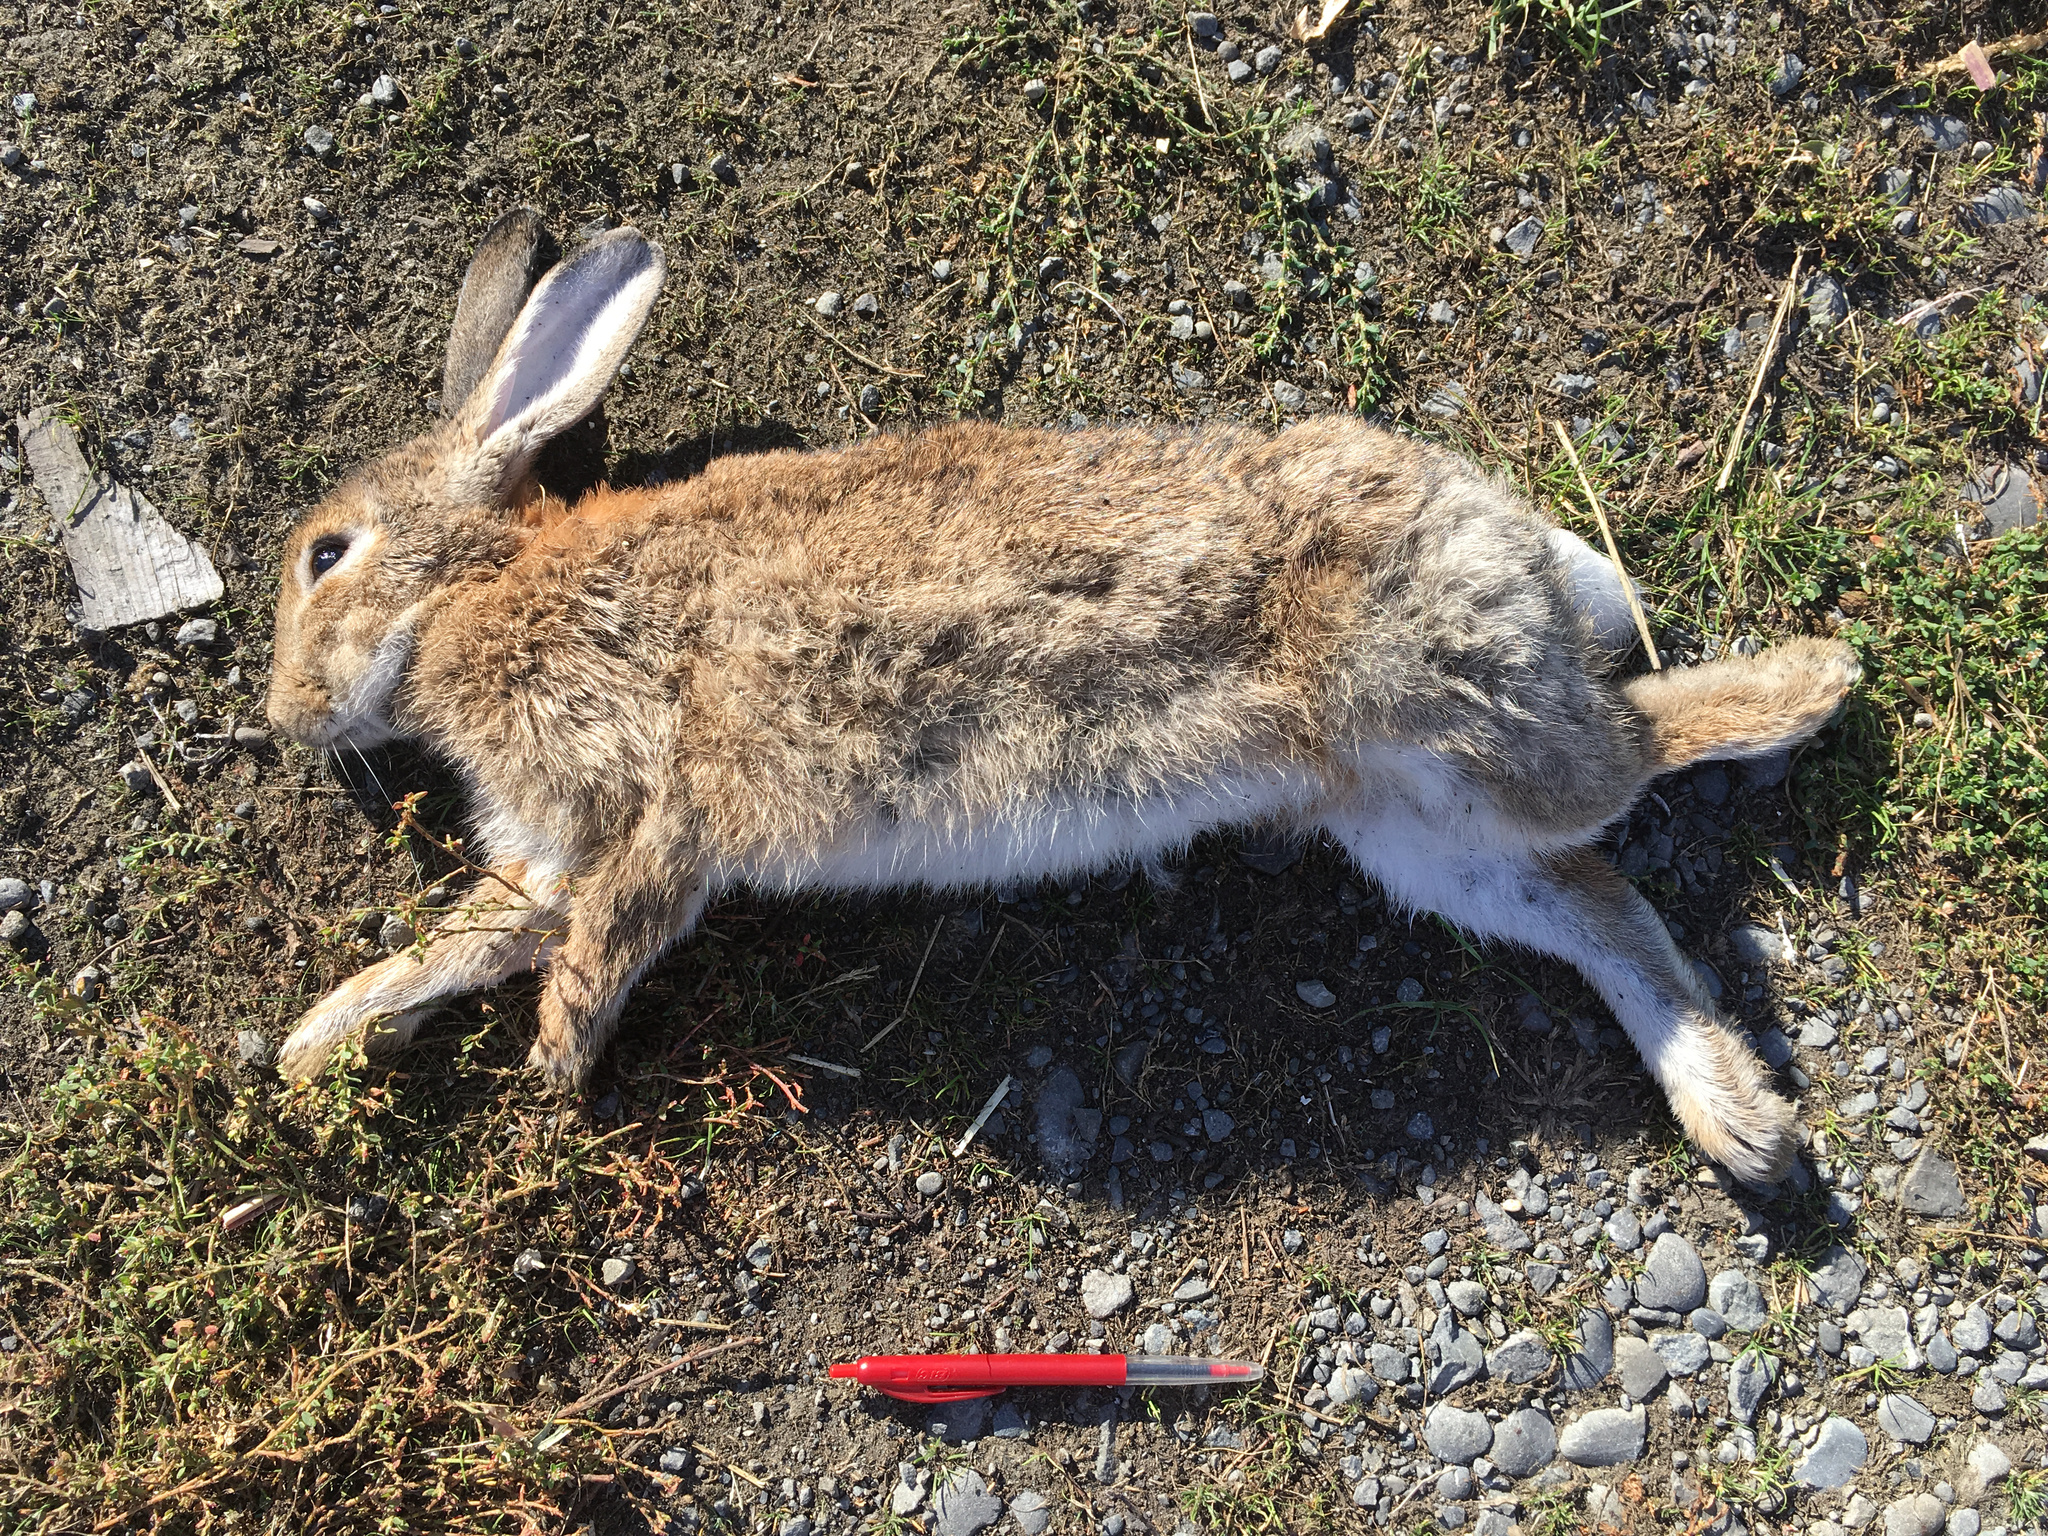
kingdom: Animalia
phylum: Chordata
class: Mammalia
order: Lagomorpha
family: Leporidae
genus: Oryctolagus
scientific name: Oryctolagus cuniculus
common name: European rabbit
